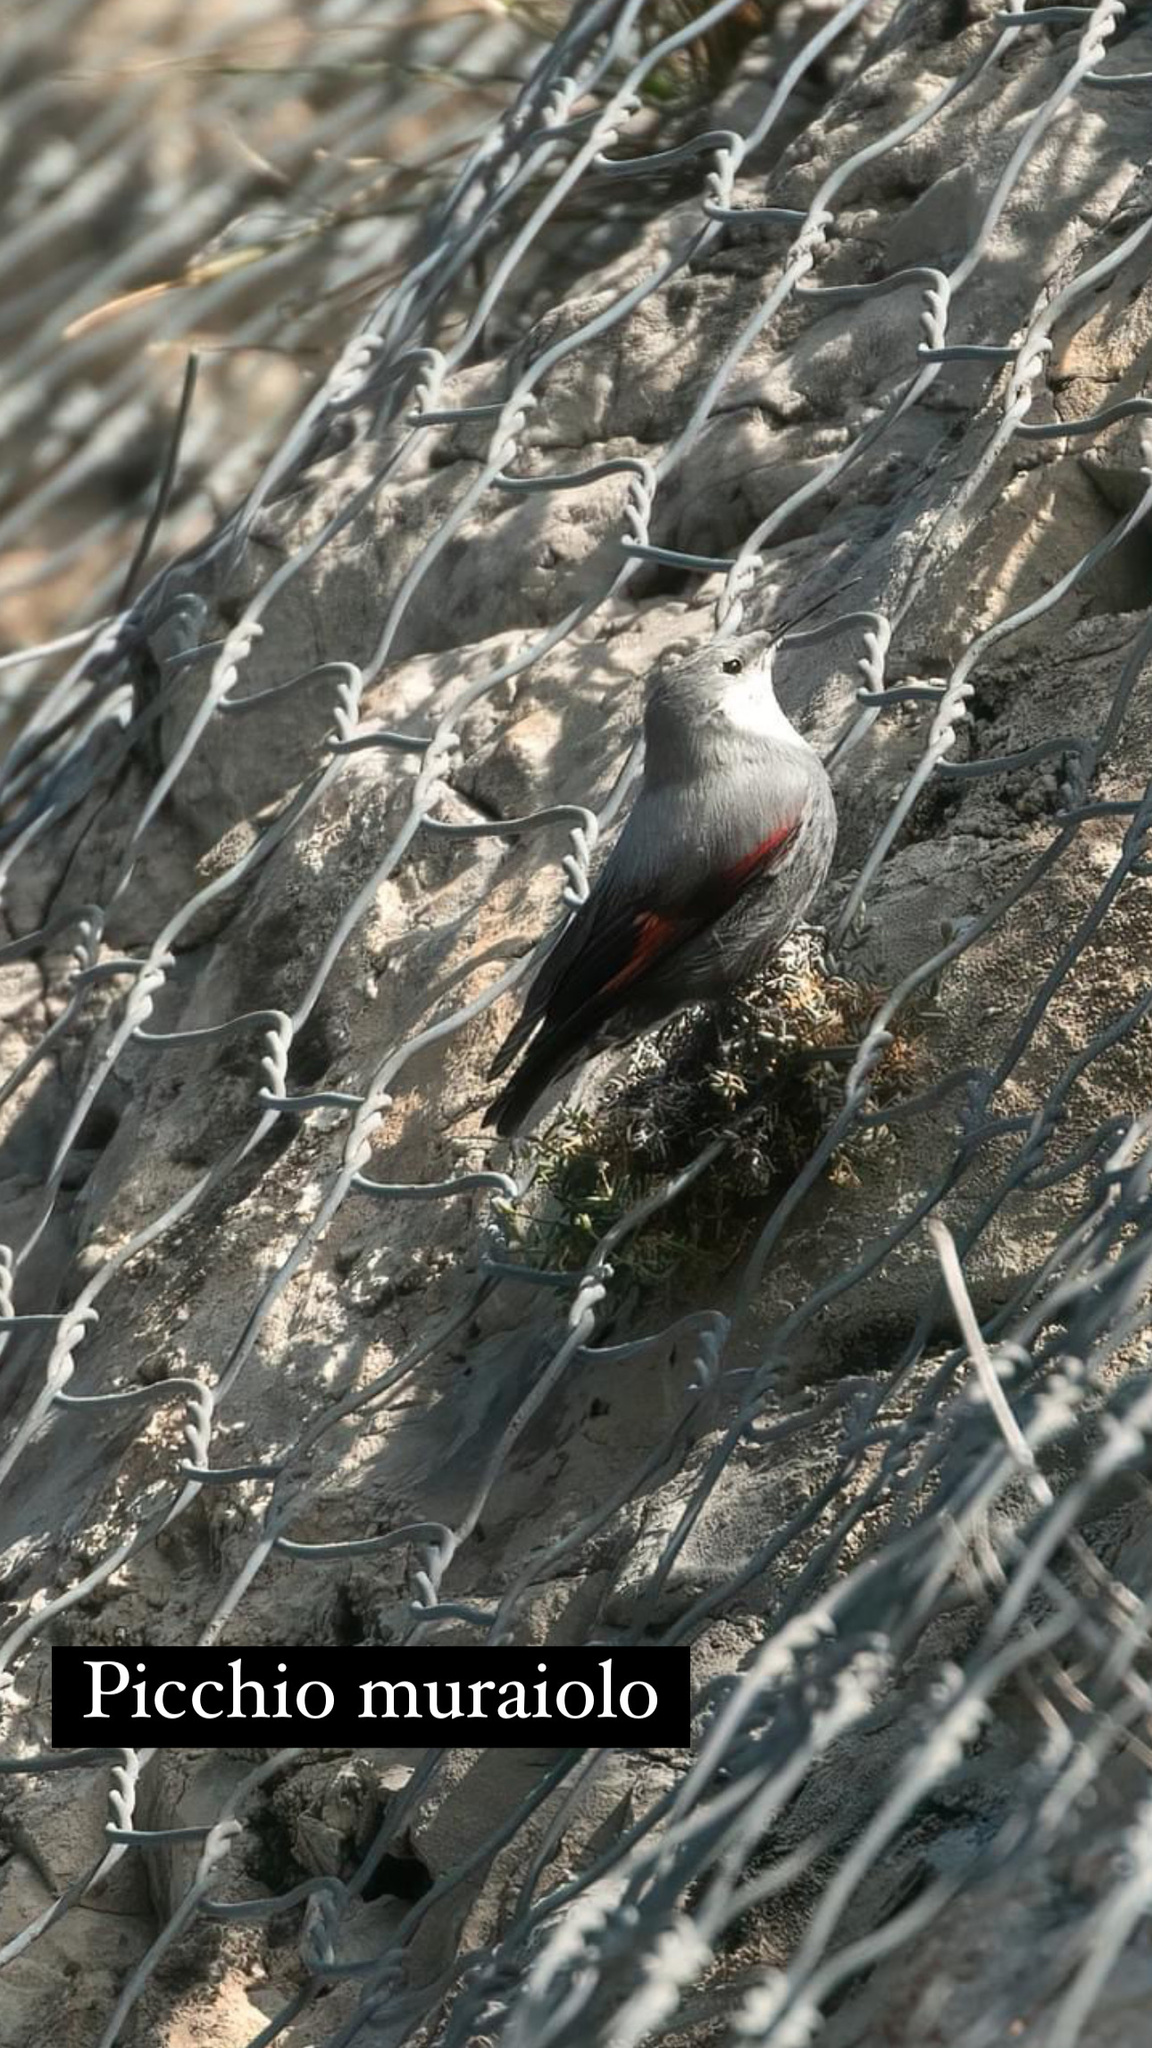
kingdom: Animalia
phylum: Chordata
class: Aves
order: Passeriformes
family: Tichodromidae
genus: Tichodroma
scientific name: Tichodroma muraria
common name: Wallcreeper
